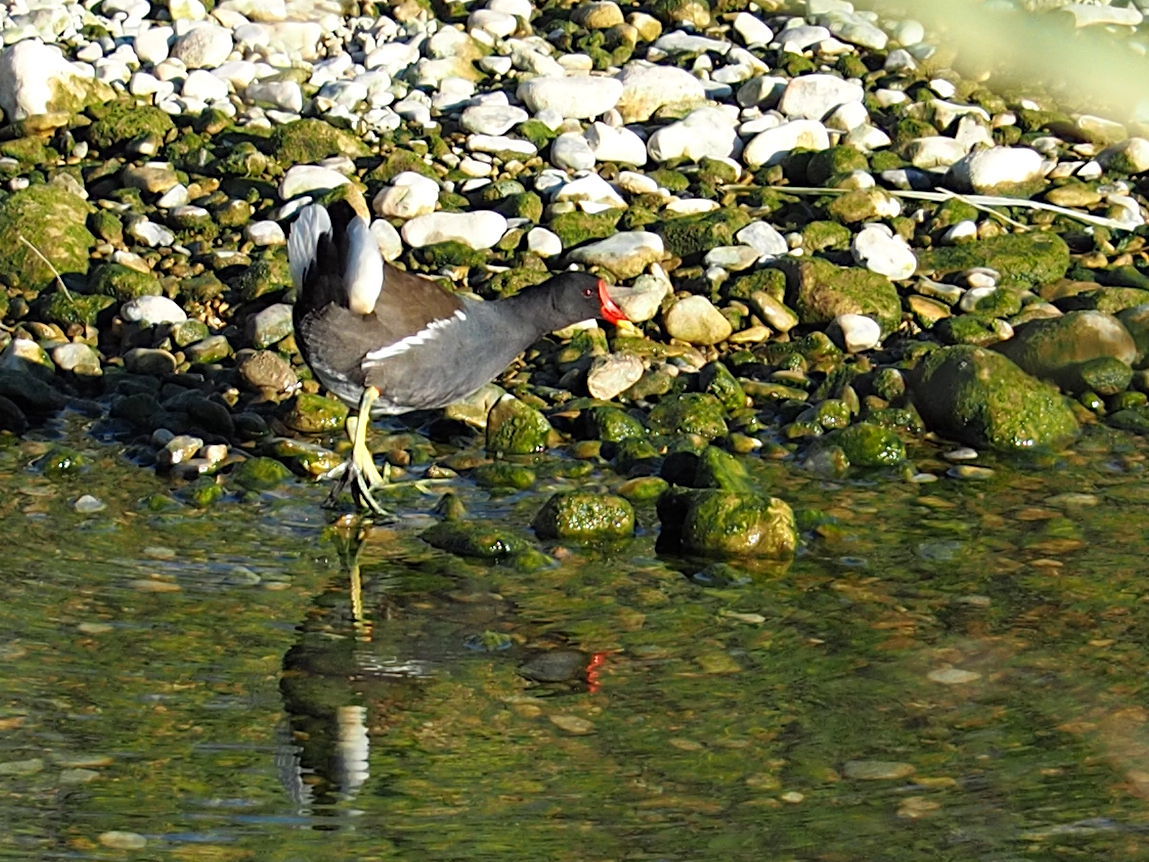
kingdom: Animalia
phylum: Chordata
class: Aves
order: Gruiformes
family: Rallidae
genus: Gallinula
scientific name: Gallinula chloropus
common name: Common moorhen
